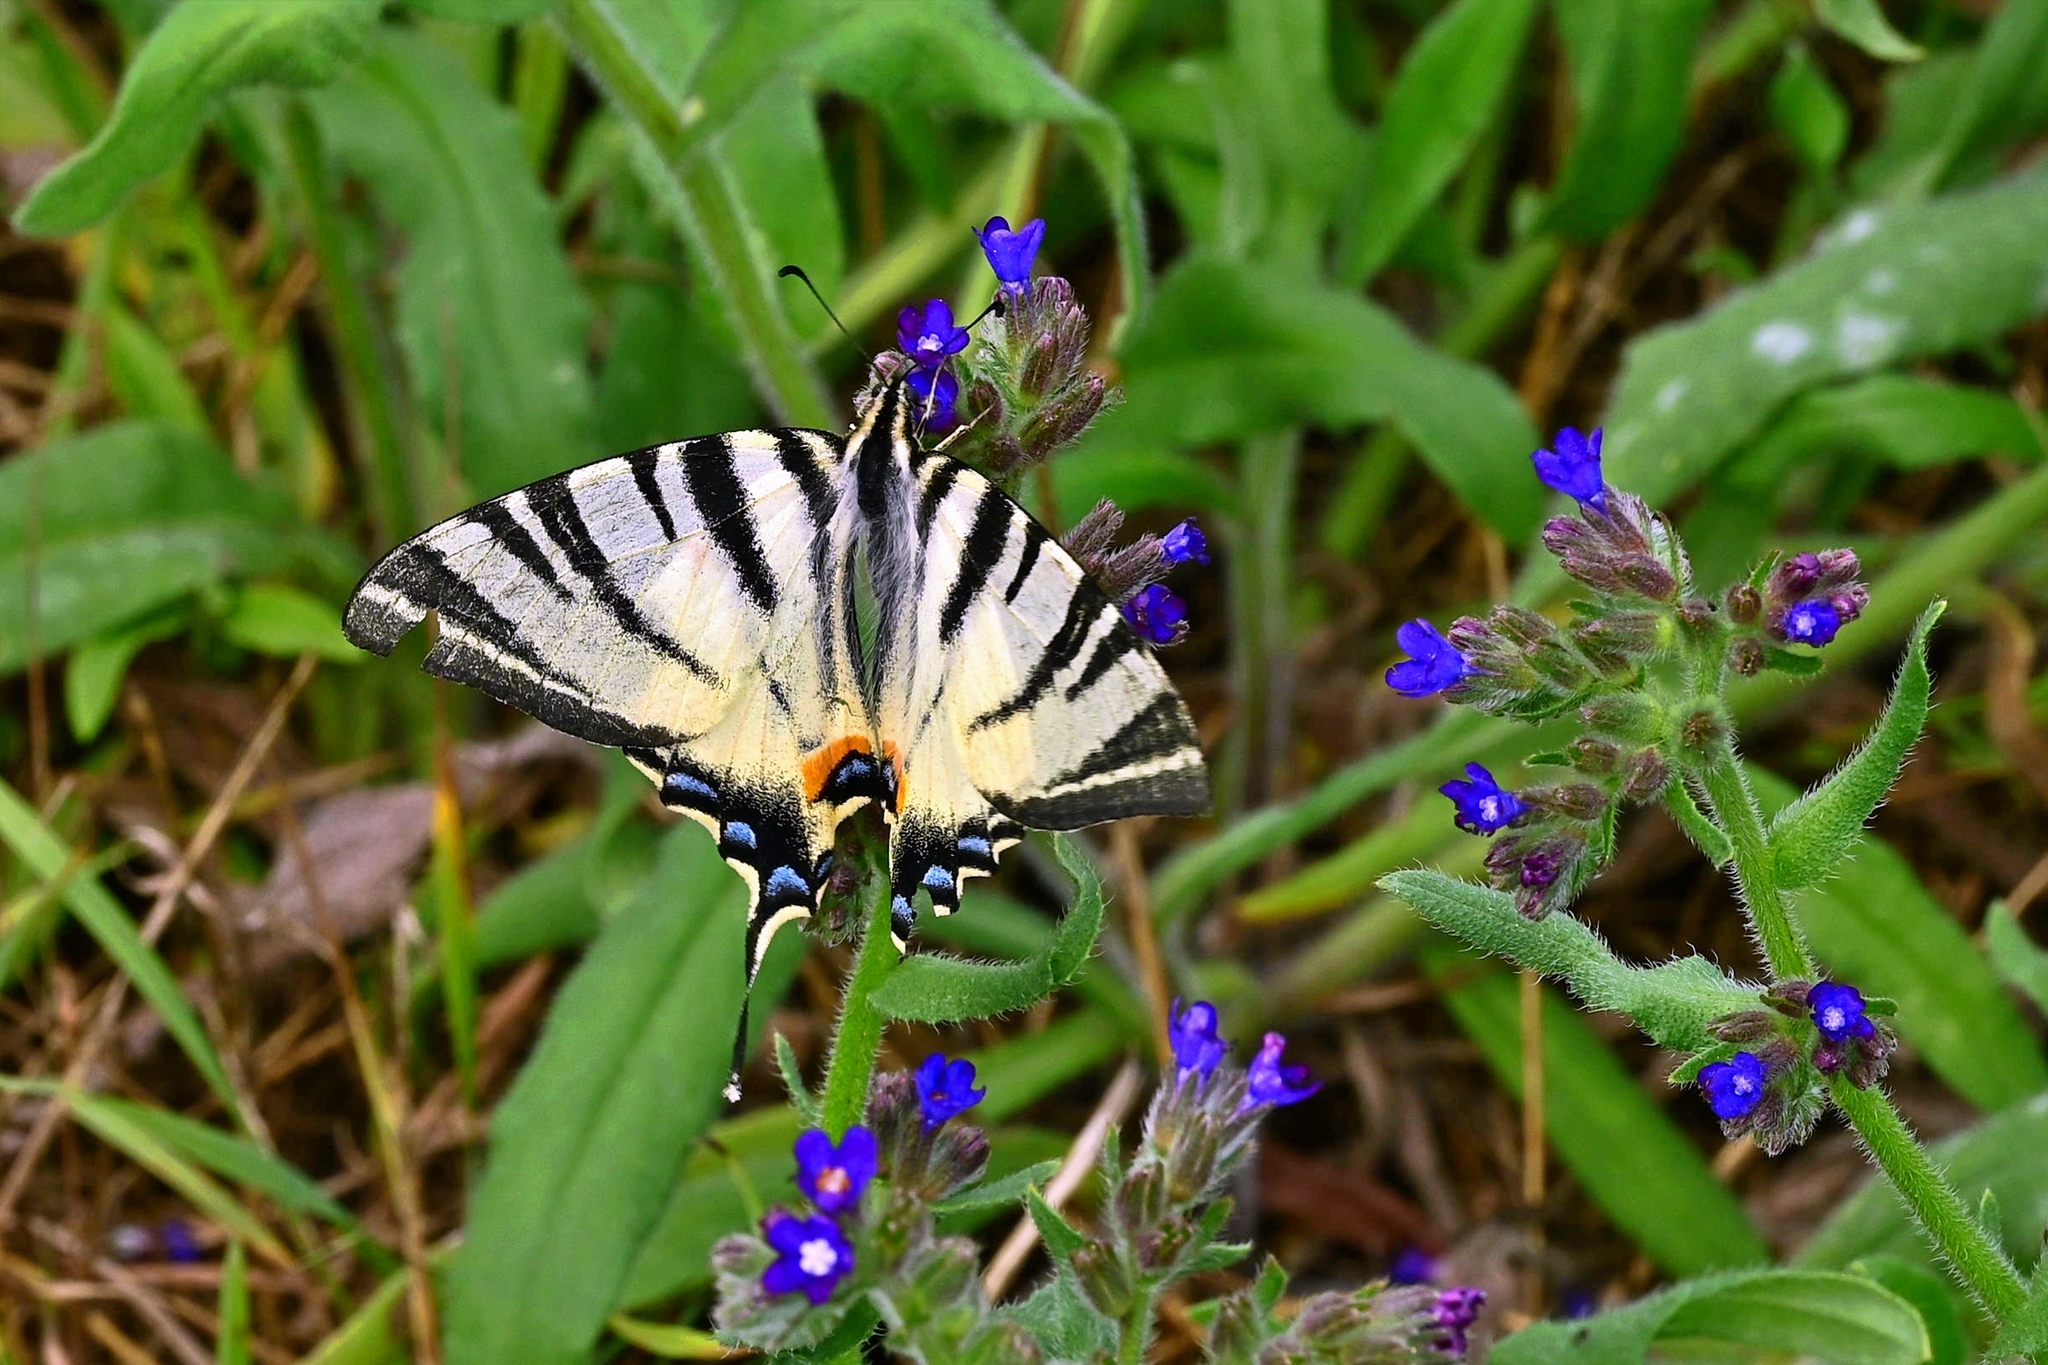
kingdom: Animalia
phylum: Arthropoda
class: Insecta
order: Lepidoptera
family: Papilionidae
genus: Iphiclides
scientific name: Iphiclides podalirius
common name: Scarce swallowtail
